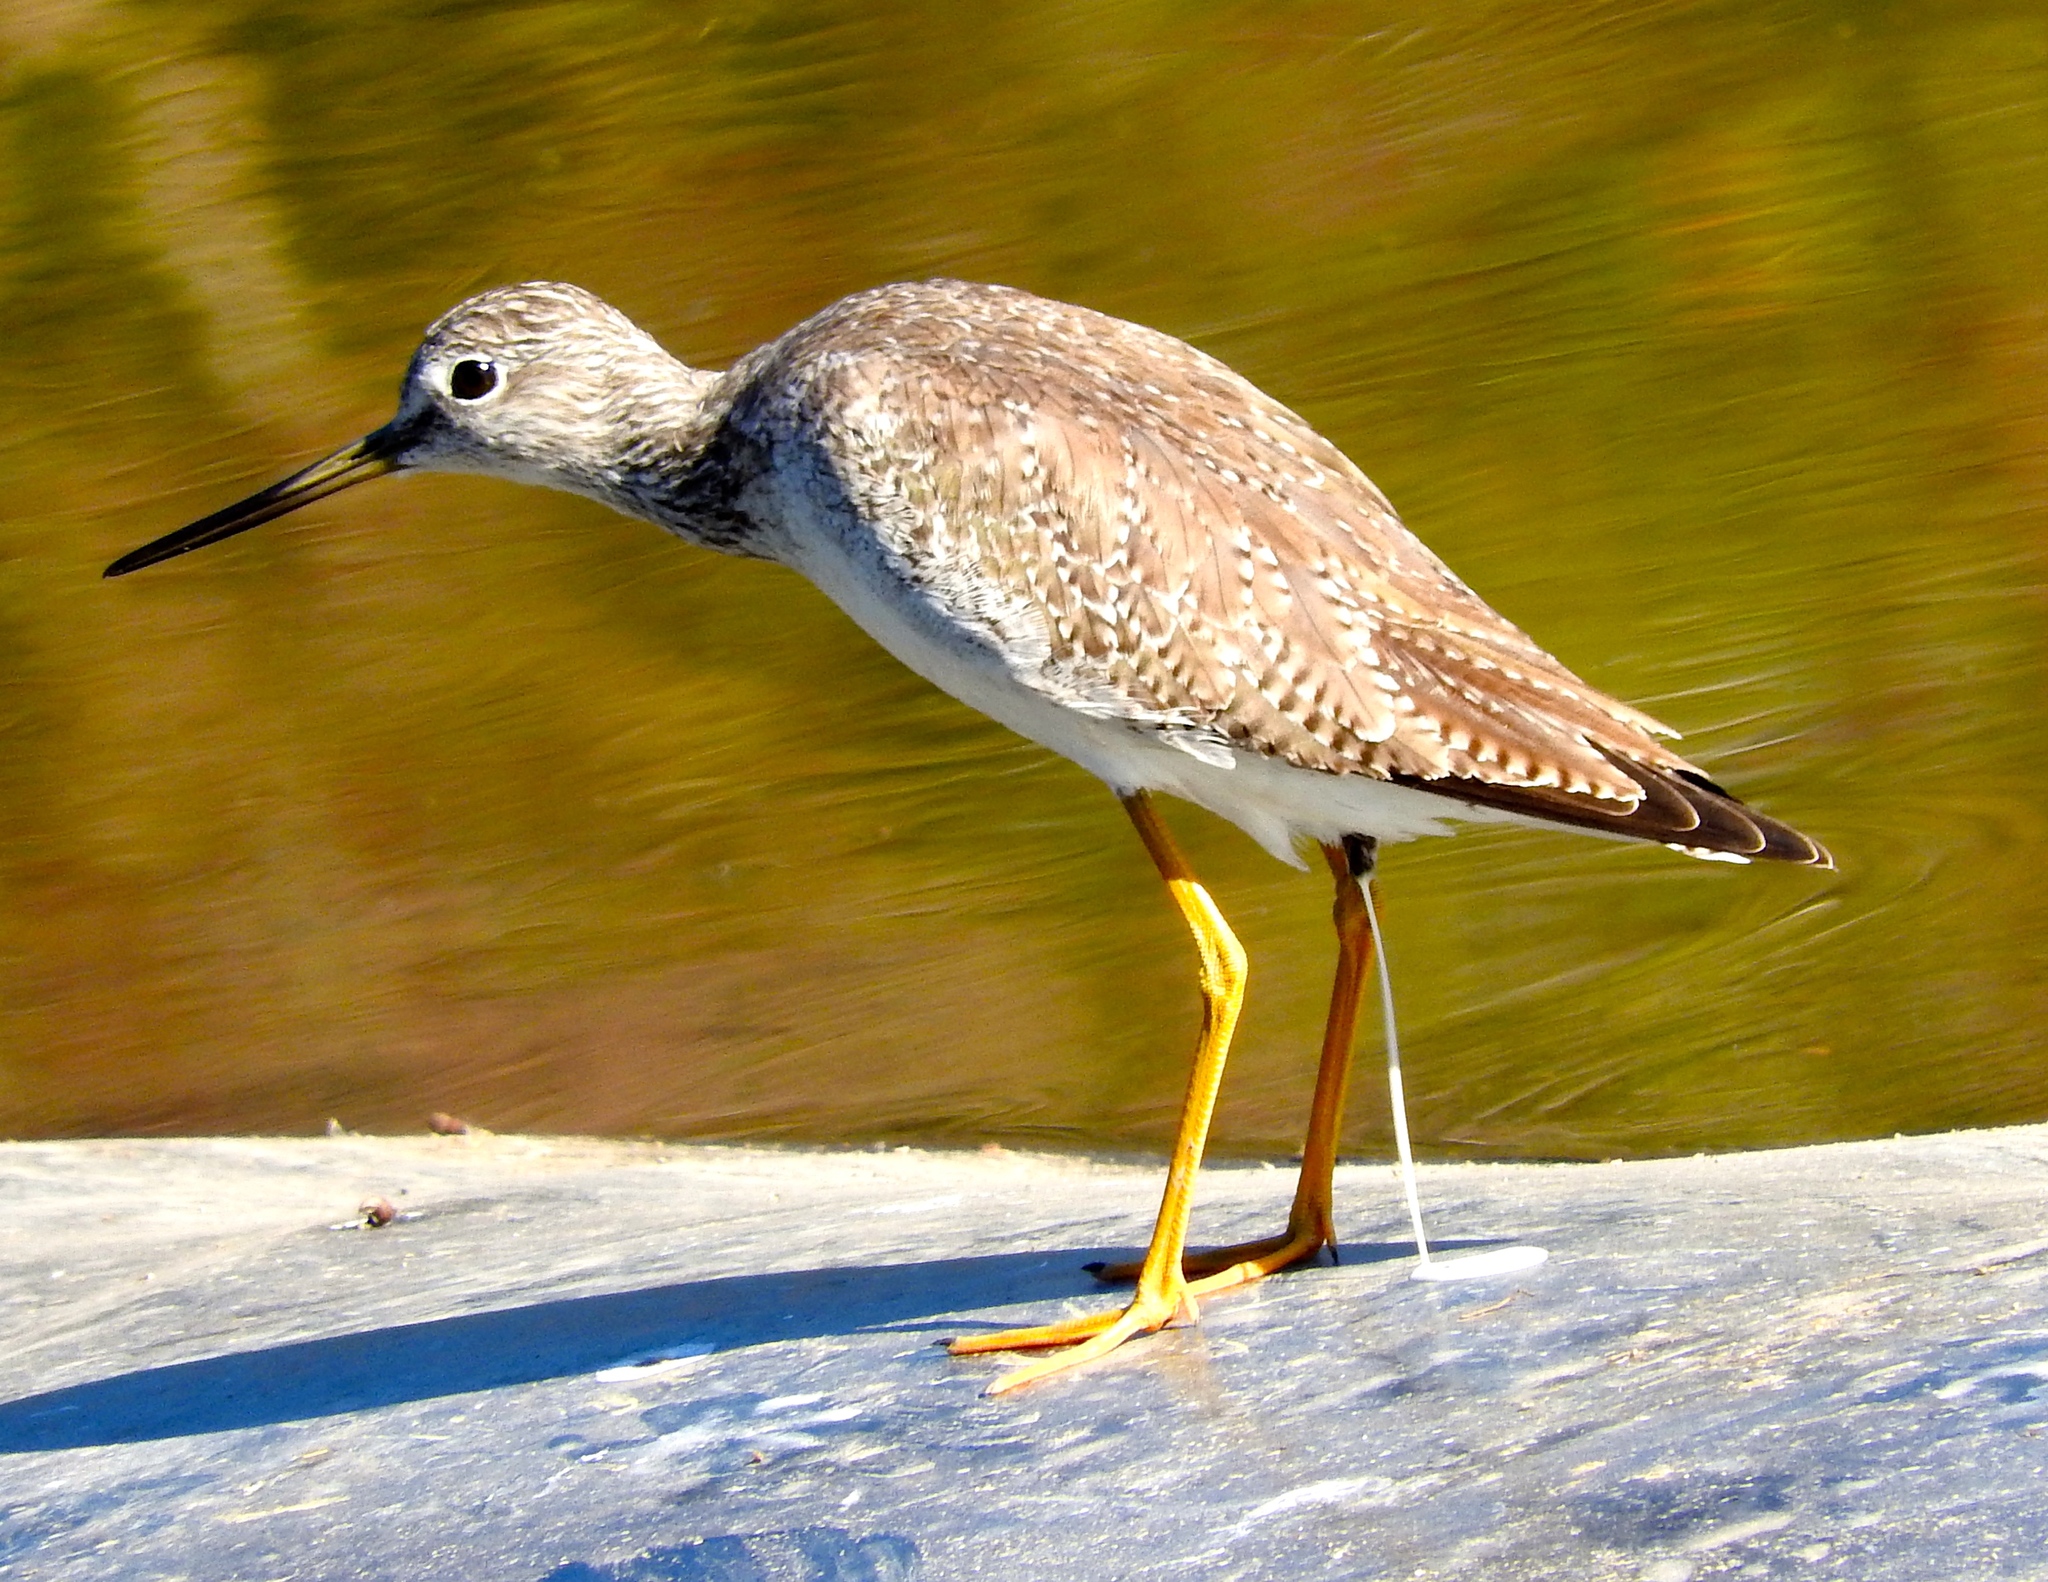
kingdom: Animalia
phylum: Chordata
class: Aves
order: Charadriiformes
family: Scolopacidae
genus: Tringa
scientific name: Tringa melanoleuca
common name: Greater yellowlegs
